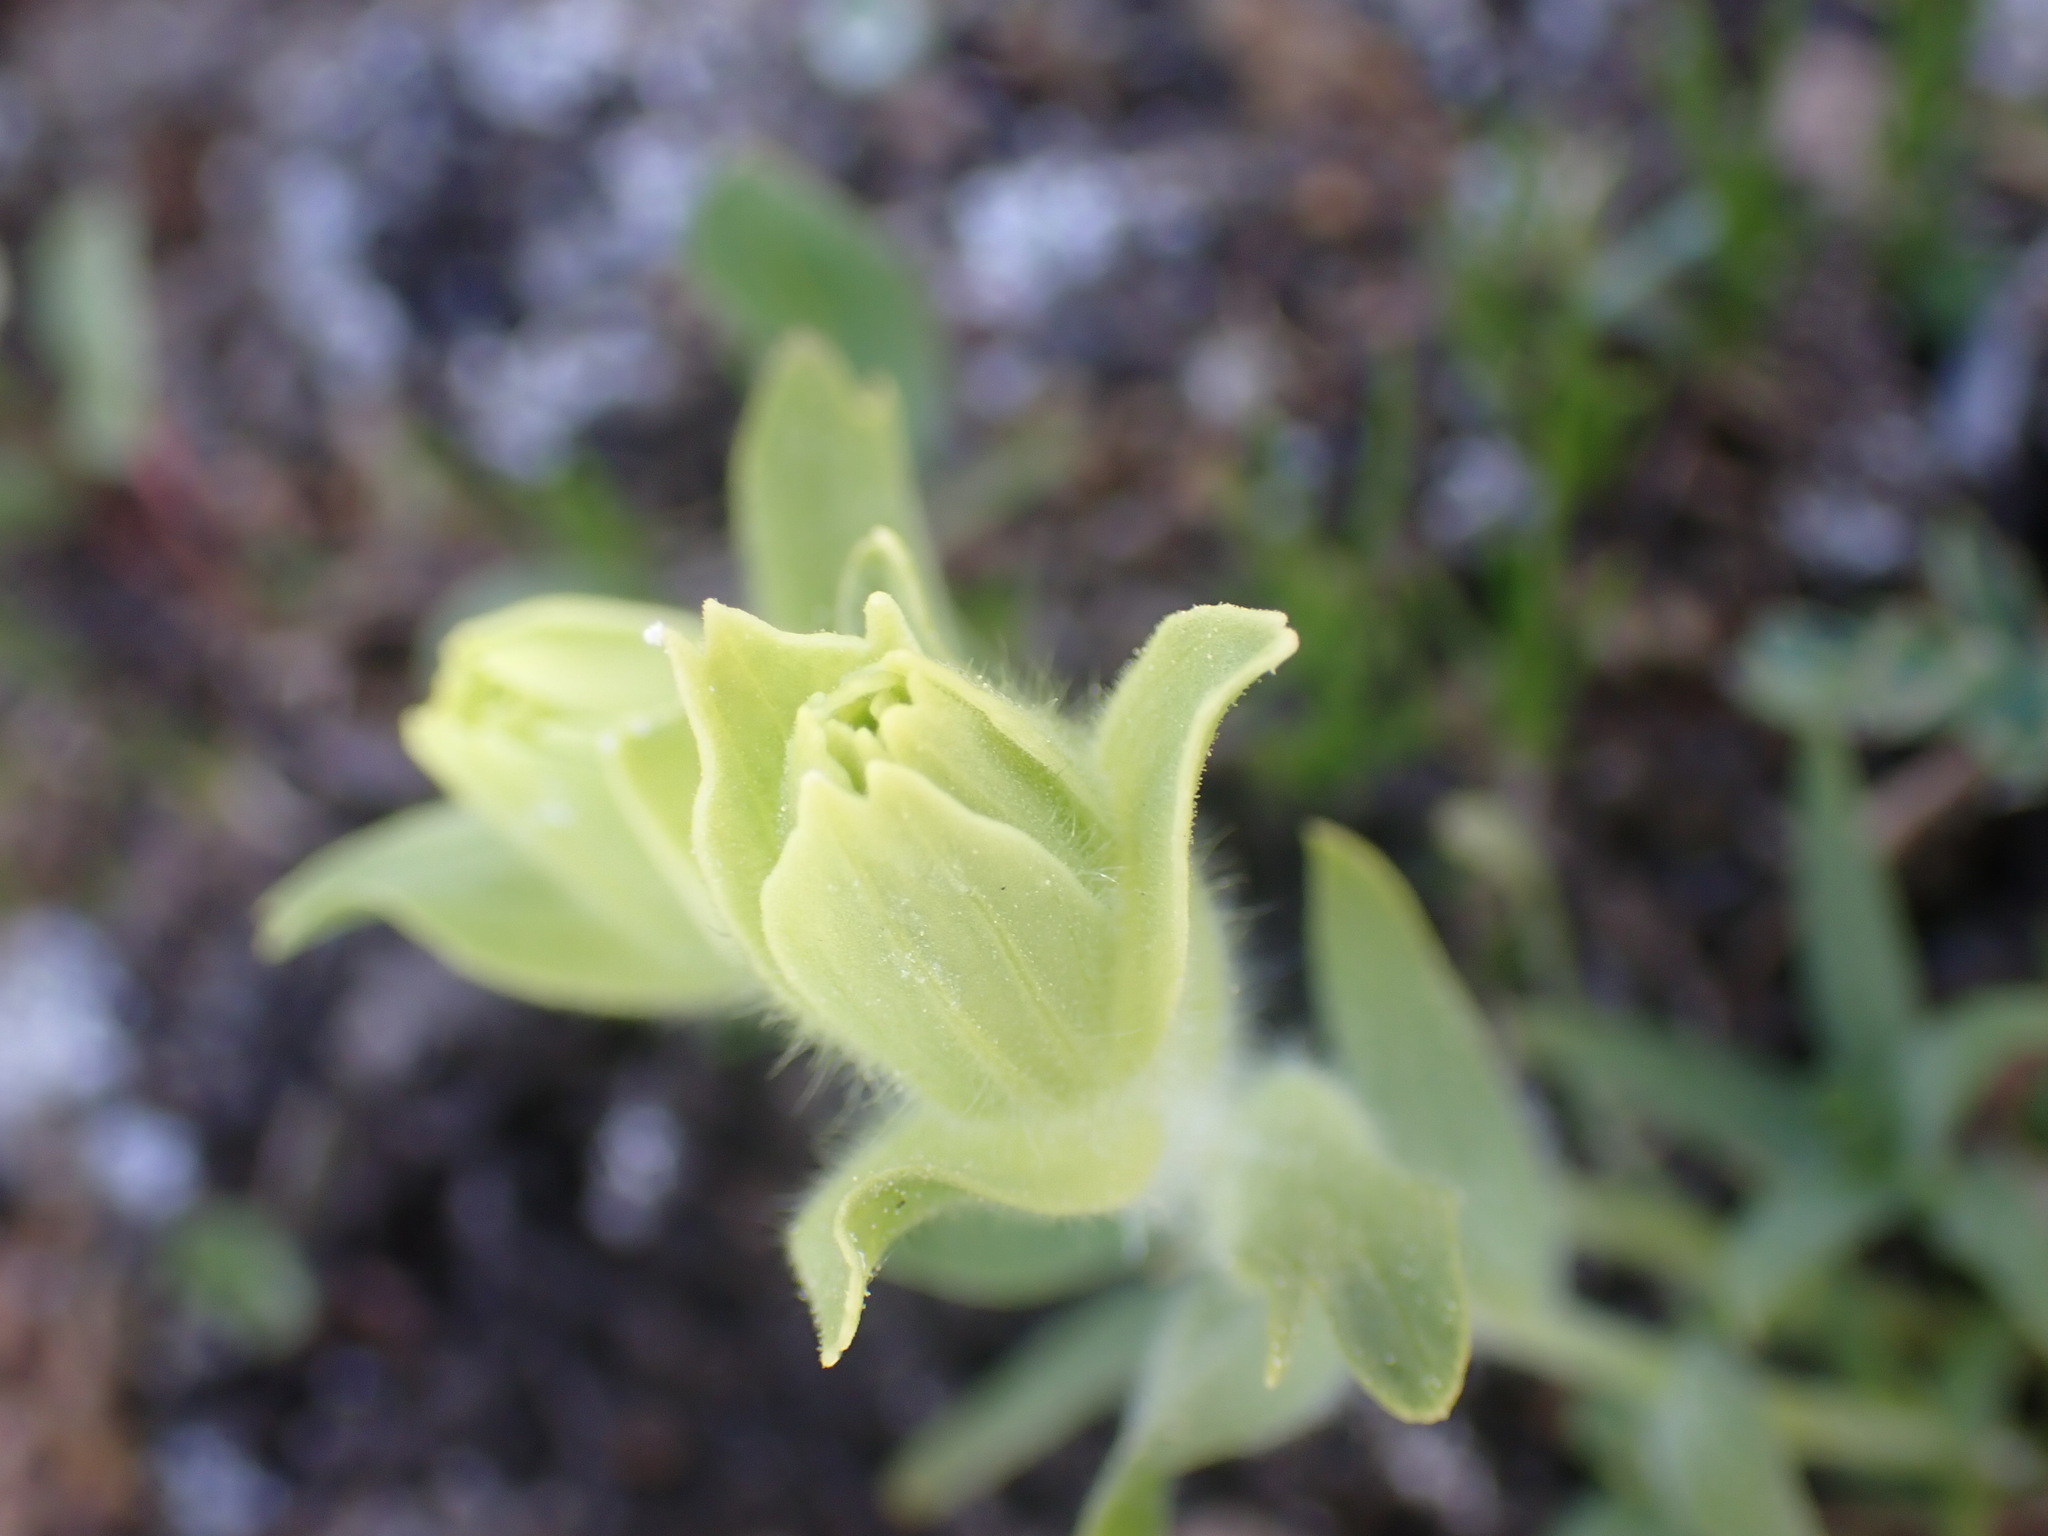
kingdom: Plantae
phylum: Tracheophyta
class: Magnoliopsida
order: Lamiales
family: Orobanchaceae
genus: Castilleja
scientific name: Castilleja occidentalis
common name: Western paintbrush
